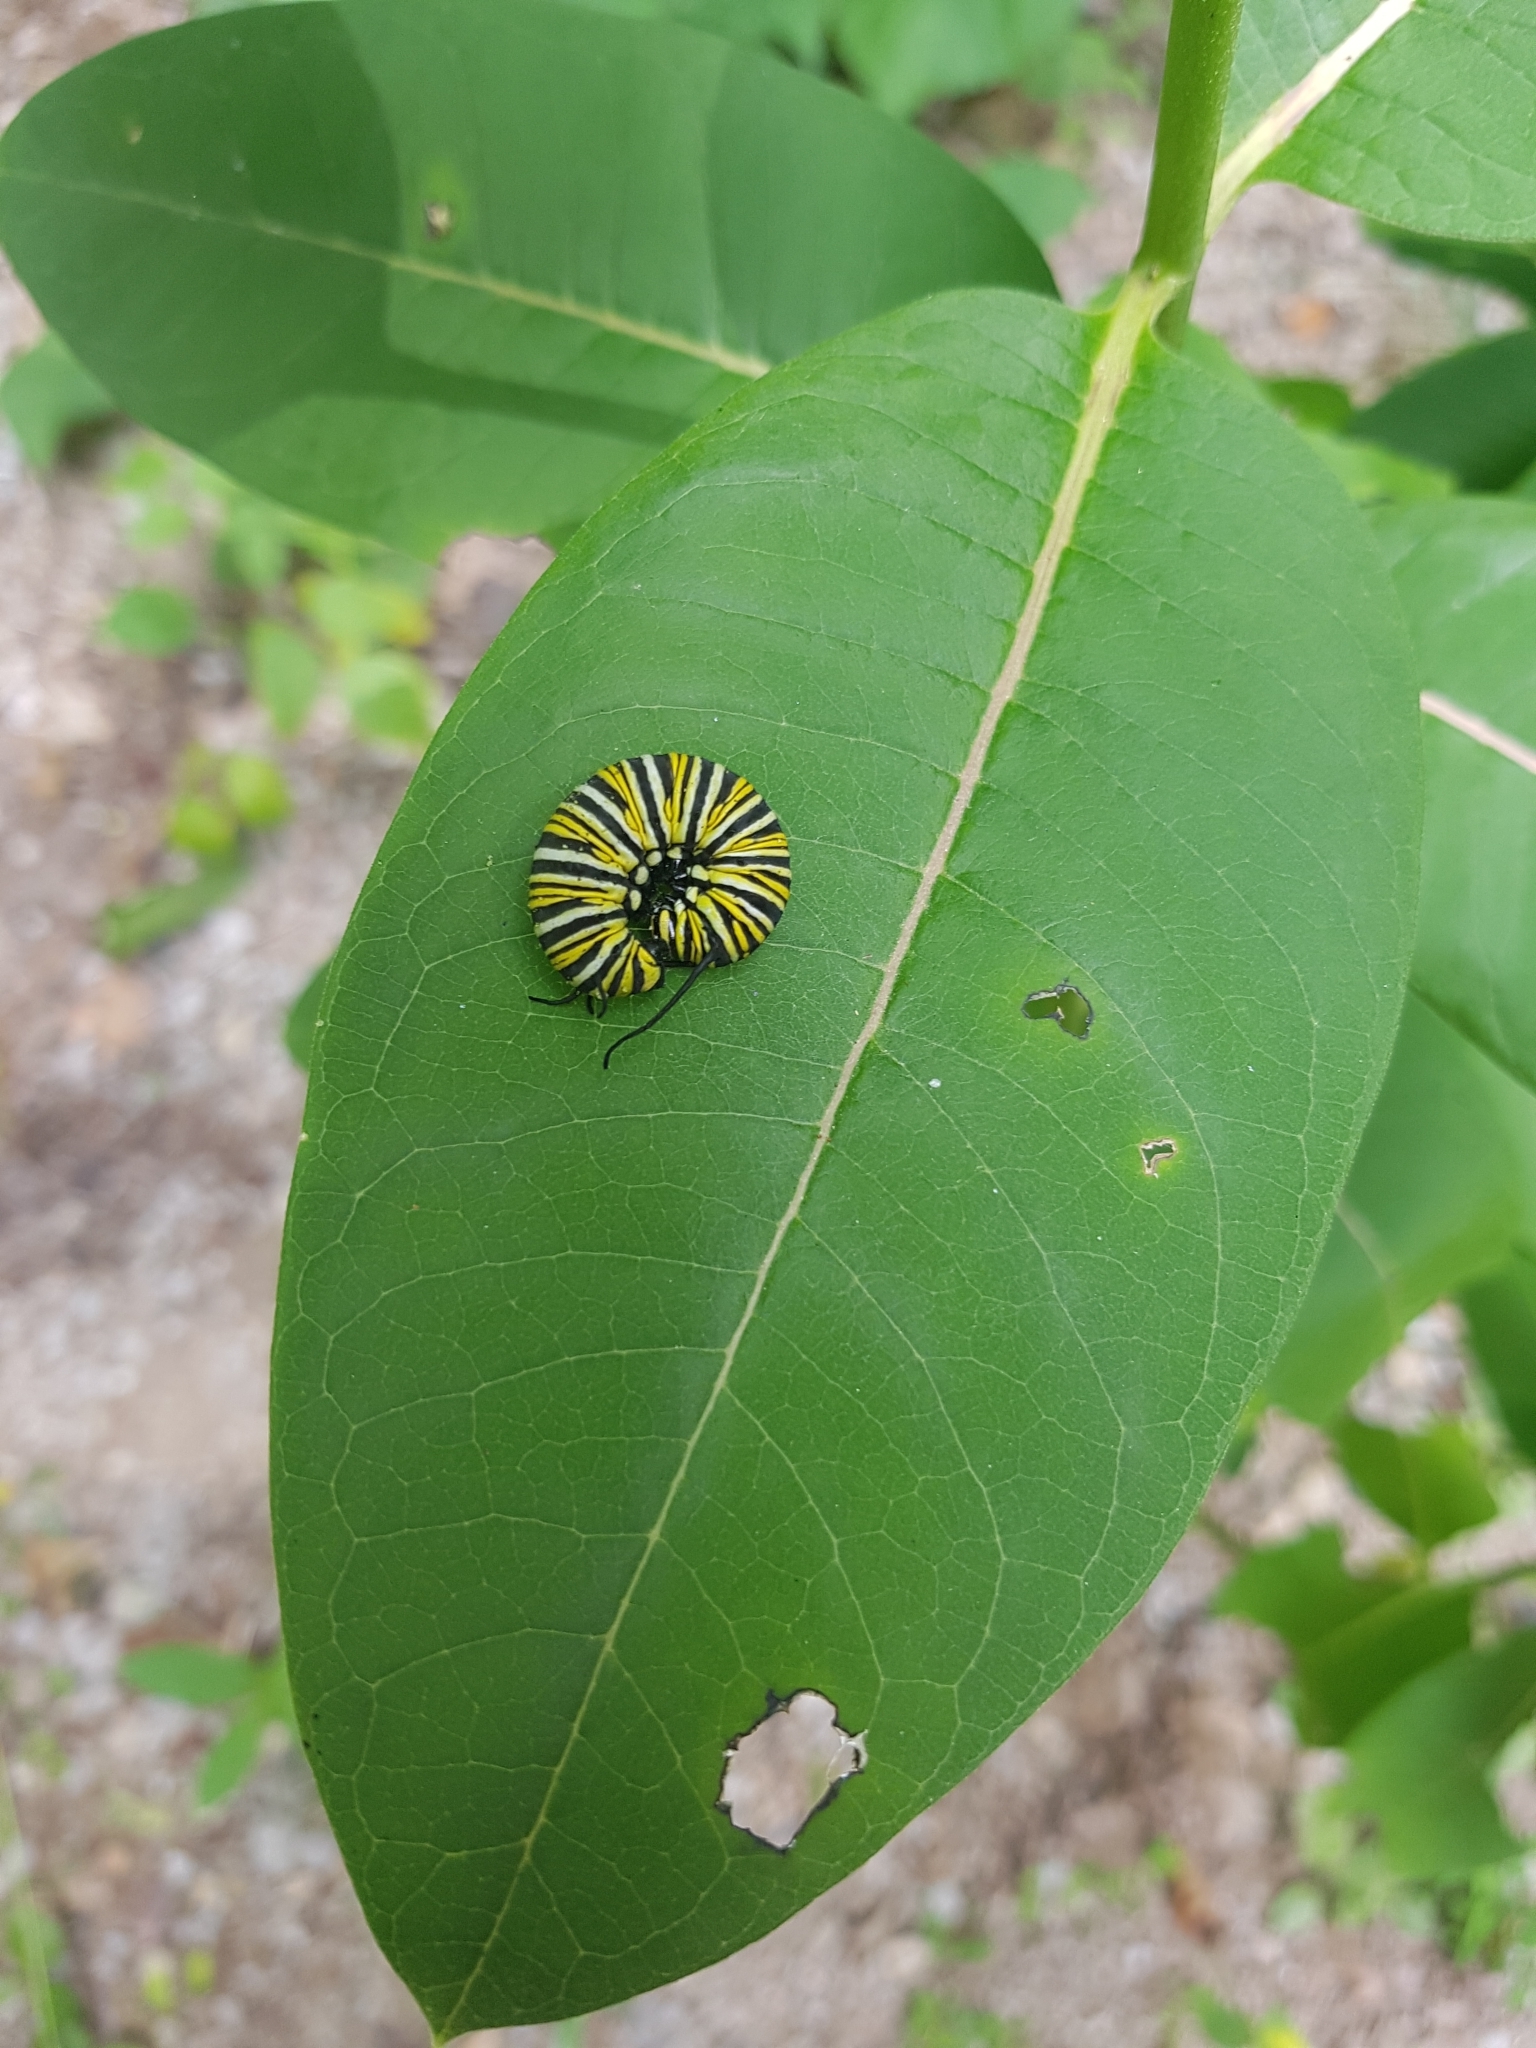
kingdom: Animalia
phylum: Arthropoda
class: Insecta
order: Lepidoptera
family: Nymphalidae
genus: Danaus
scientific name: Danaus plexippus
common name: Monarch
